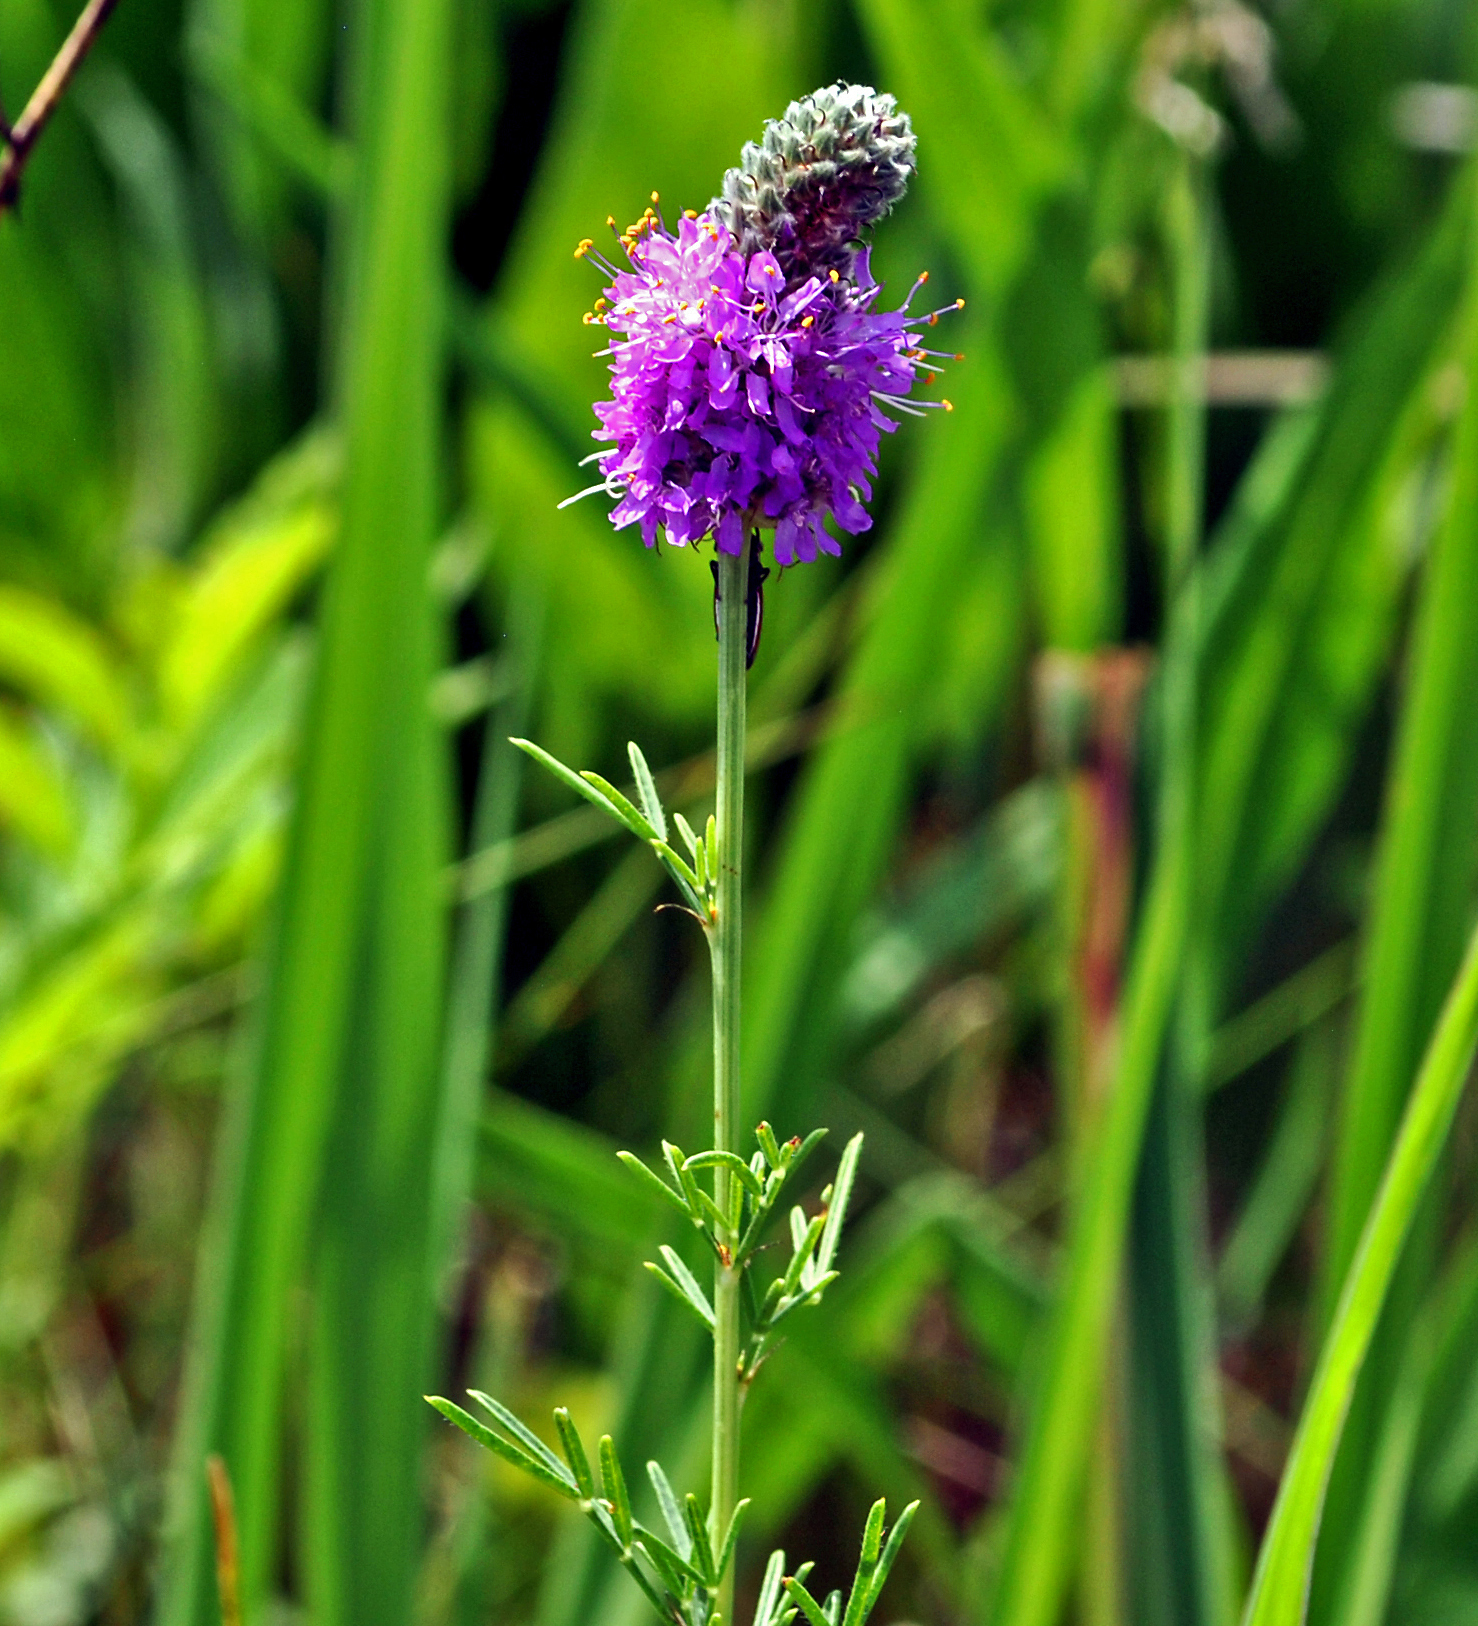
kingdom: Plantae
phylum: Tracheophyta
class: Magnoliopsida
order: Fabales
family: Fabaceae
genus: Dalea
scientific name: Dalea purpurea
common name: Purple prairie-clover
